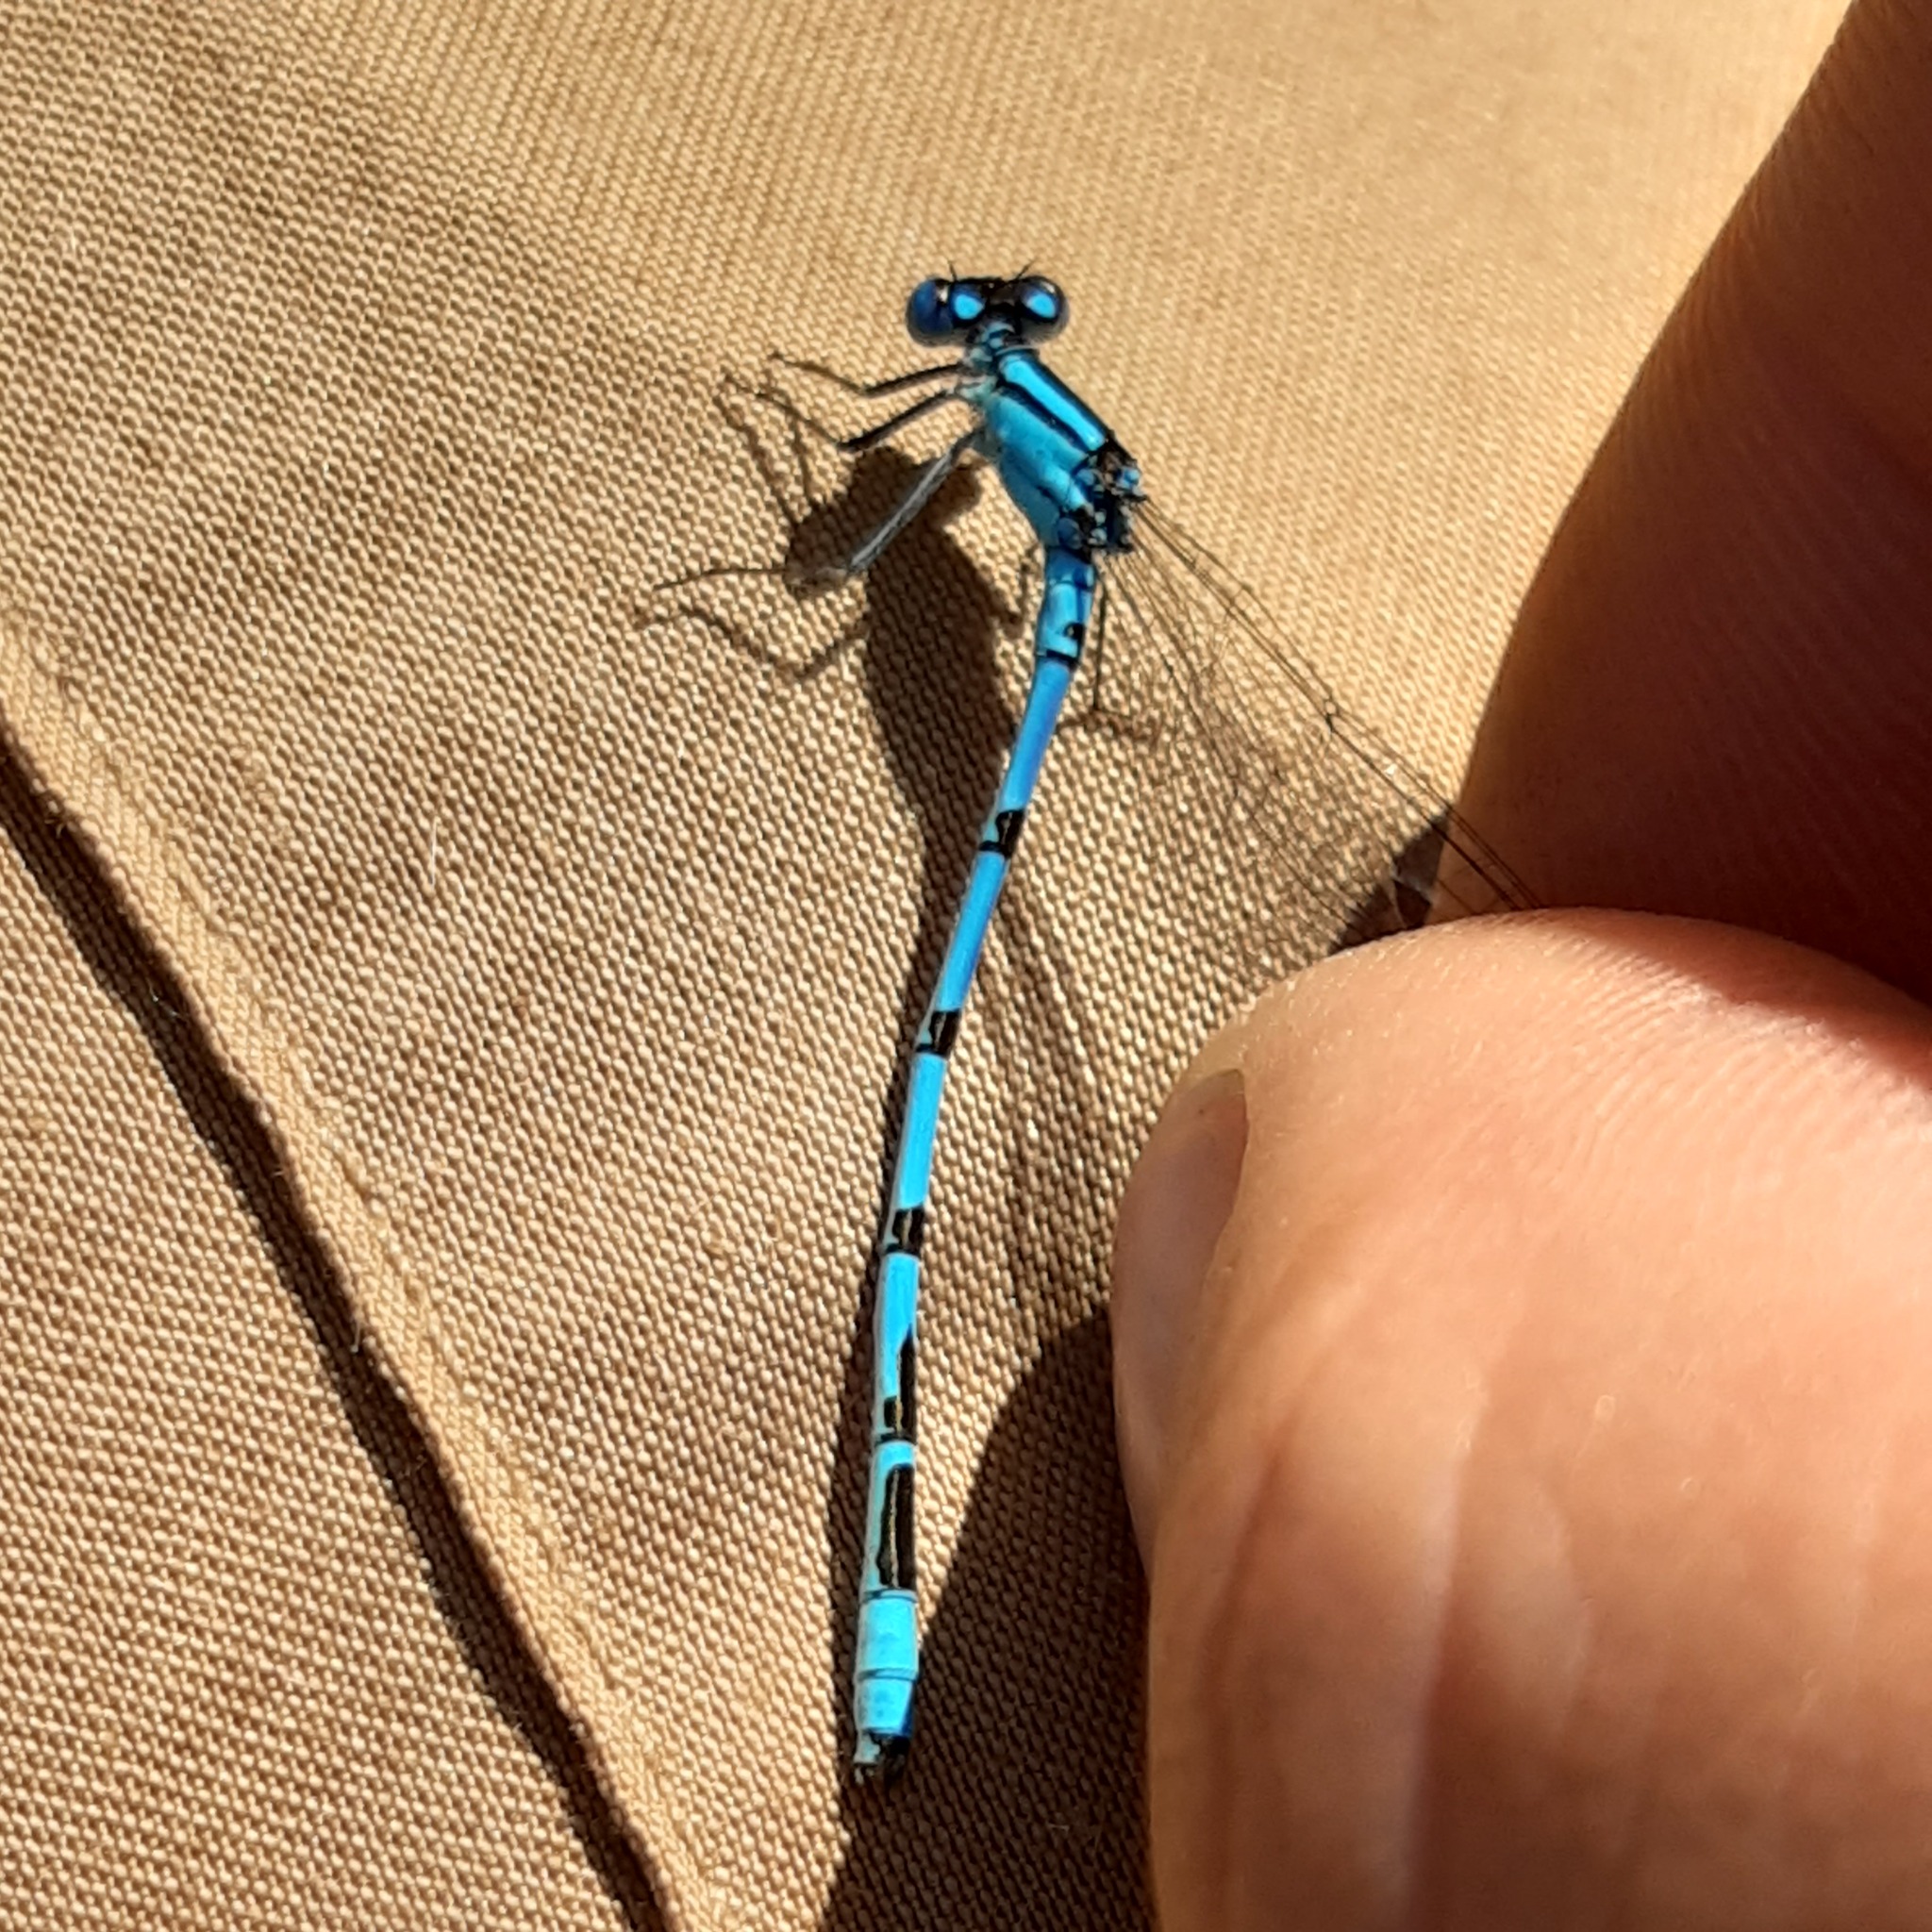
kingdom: Animalia
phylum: Arthropoda
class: Insecta
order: Odonata
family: Coenagrionidae
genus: Enallagma
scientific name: Enallagma cyathigerum
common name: Common blue damselfly
